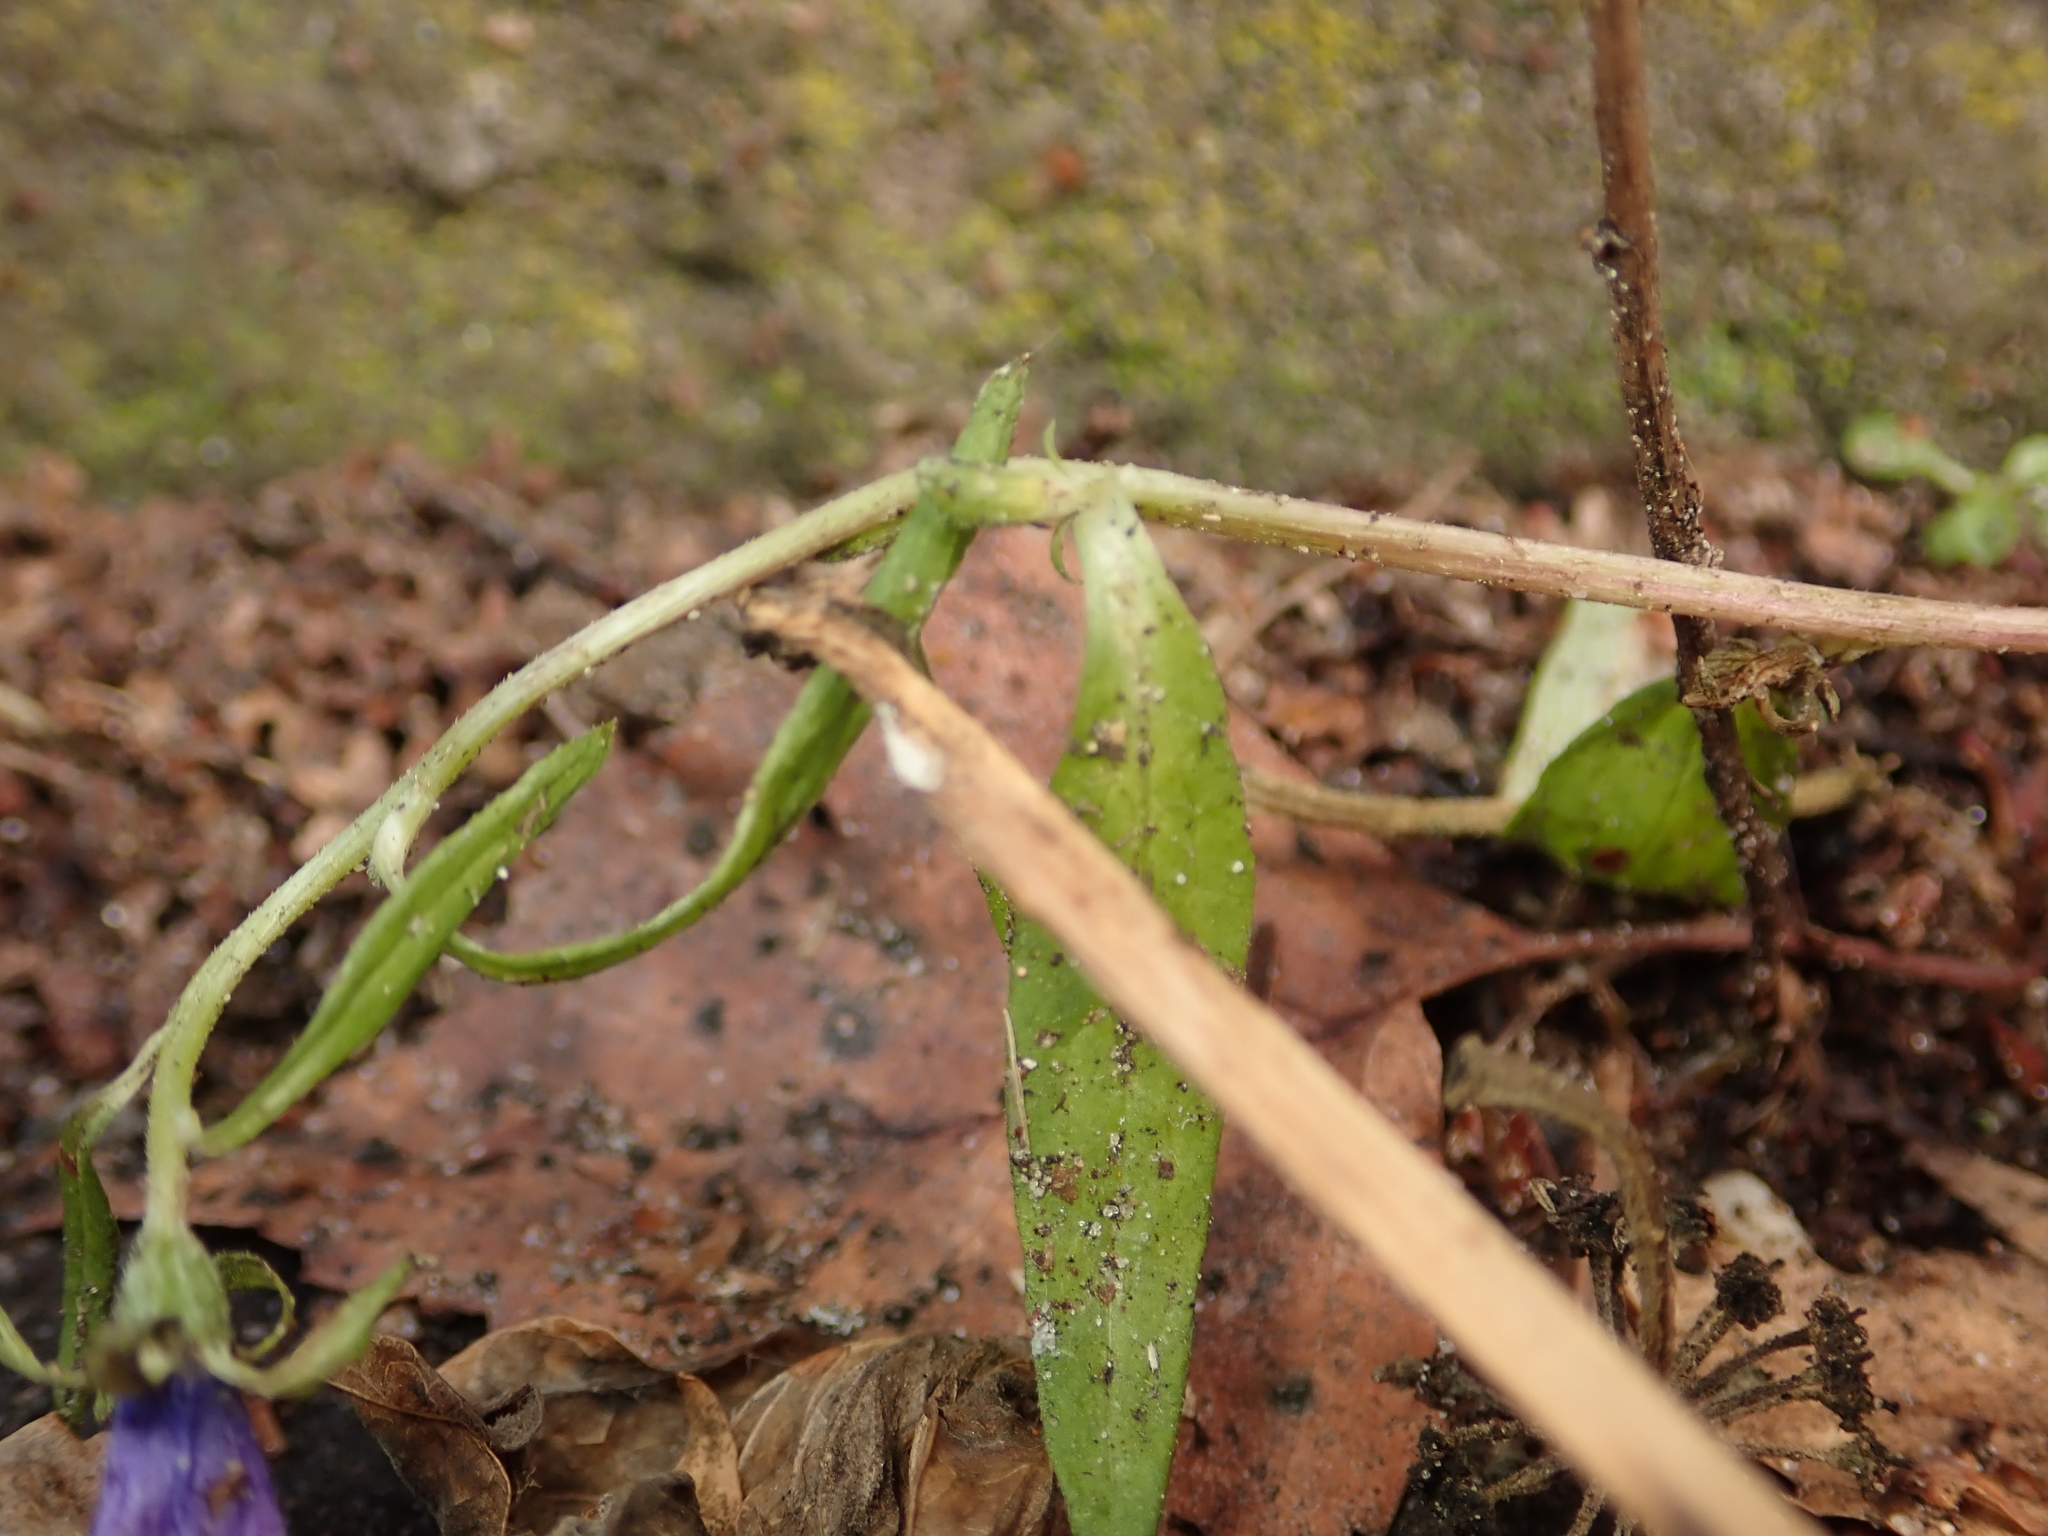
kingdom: Plantae
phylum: Tracheophyta
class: Magnoliopsida
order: Asterales
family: Campanulaceae
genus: Campanula
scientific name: Campanula rapunculoides
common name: Creeping bellflower
